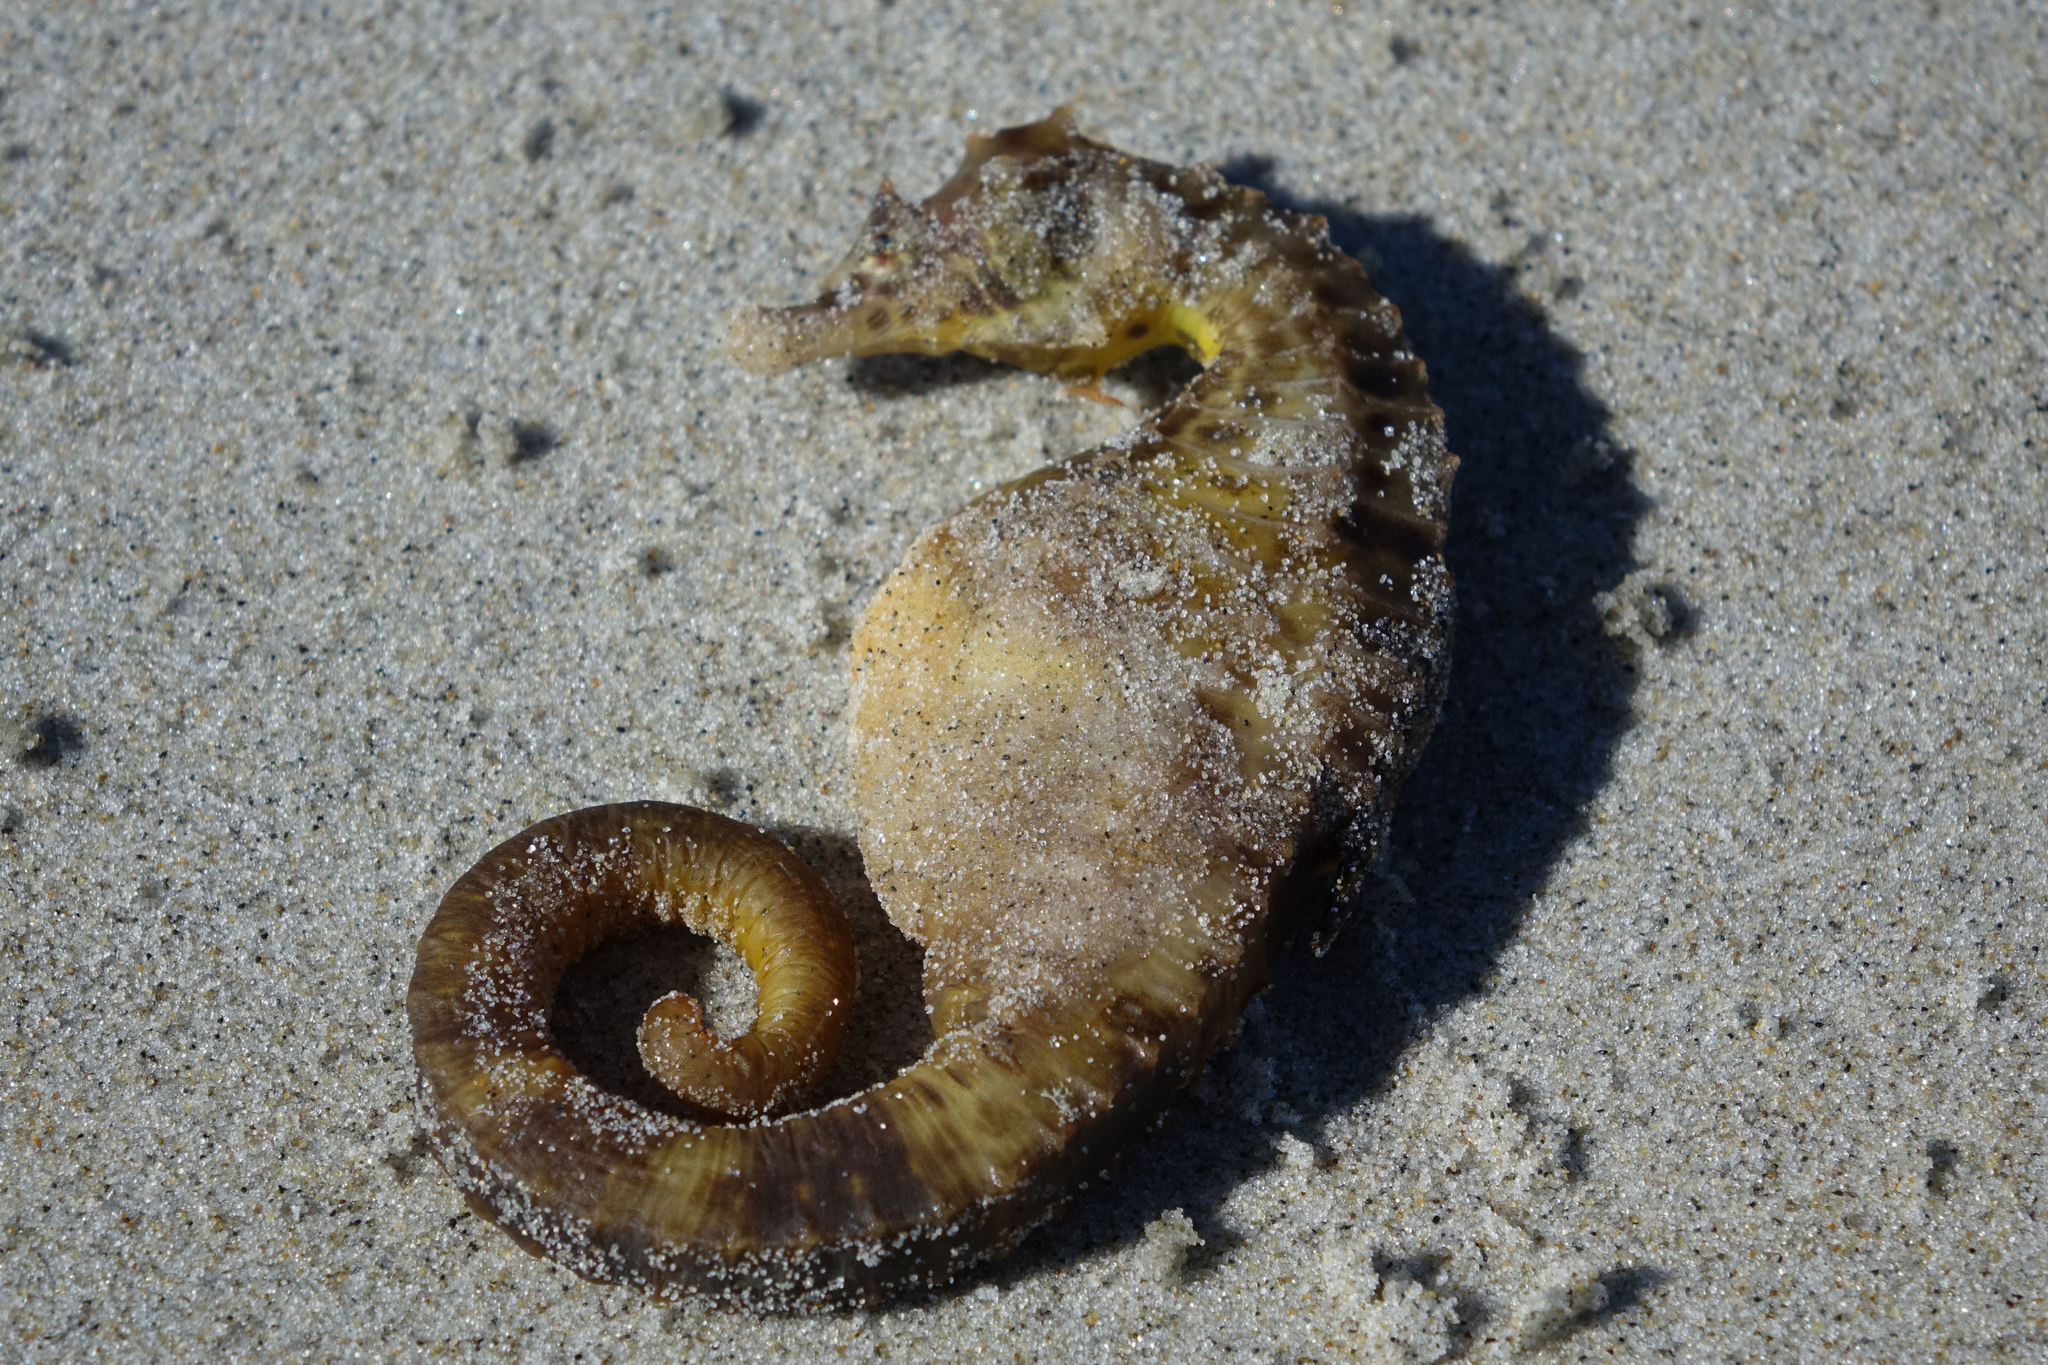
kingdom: Animalia
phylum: Chordata
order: Syngnathiformes
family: Syngnathidae
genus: Hippocampus
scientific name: Hippocampus abdominalis
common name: Big-belly seahorse
